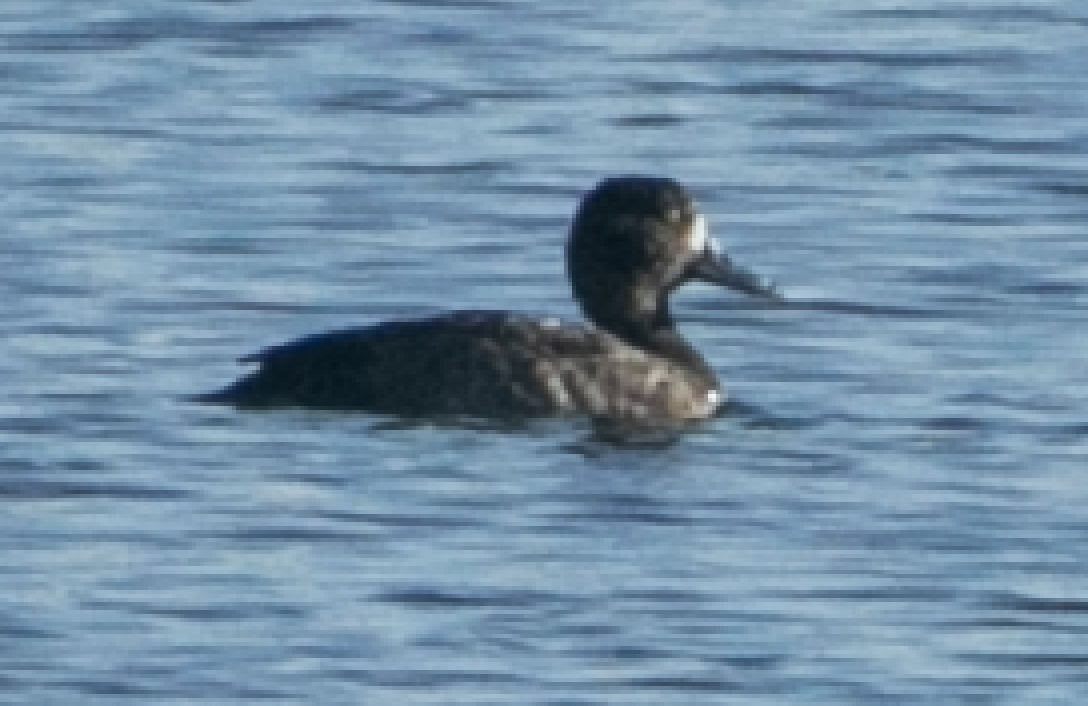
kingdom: Animalia
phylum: Chordata
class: Aves
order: Anseriformes
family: Anatidae
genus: Aythya
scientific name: Aythya fuligula
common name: Tufted duck
